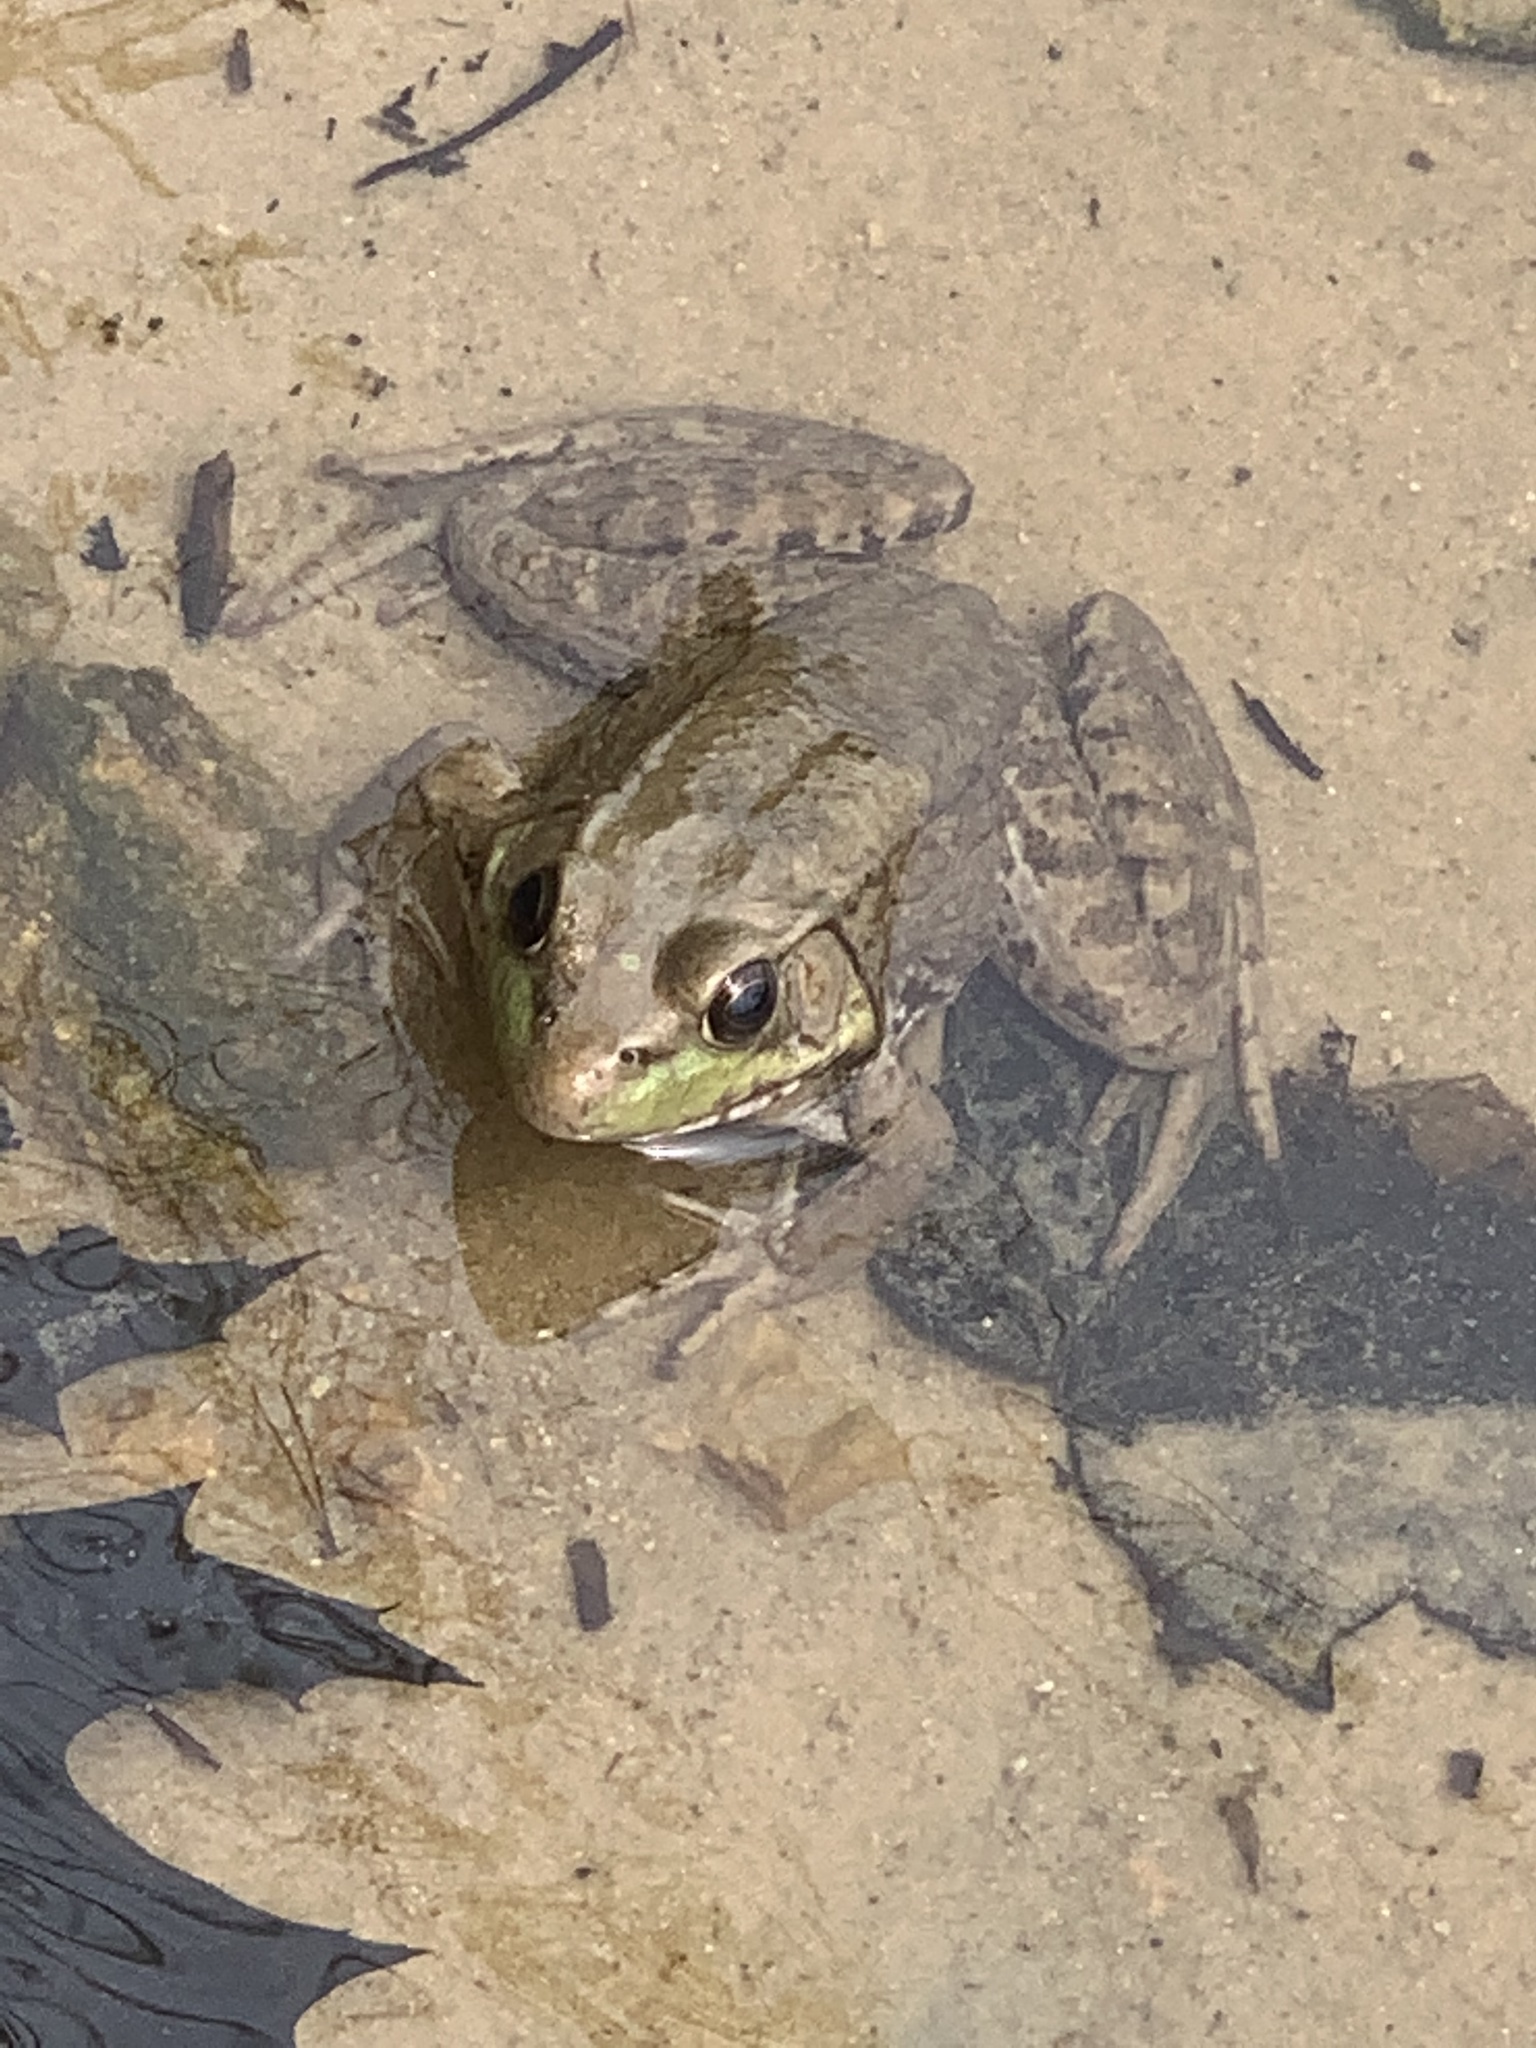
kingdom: Animalia
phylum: Chordata
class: Amphibia
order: Anura
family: Ranidae
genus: Lithobates
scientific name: Lithobates clamitans
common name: Green frog
